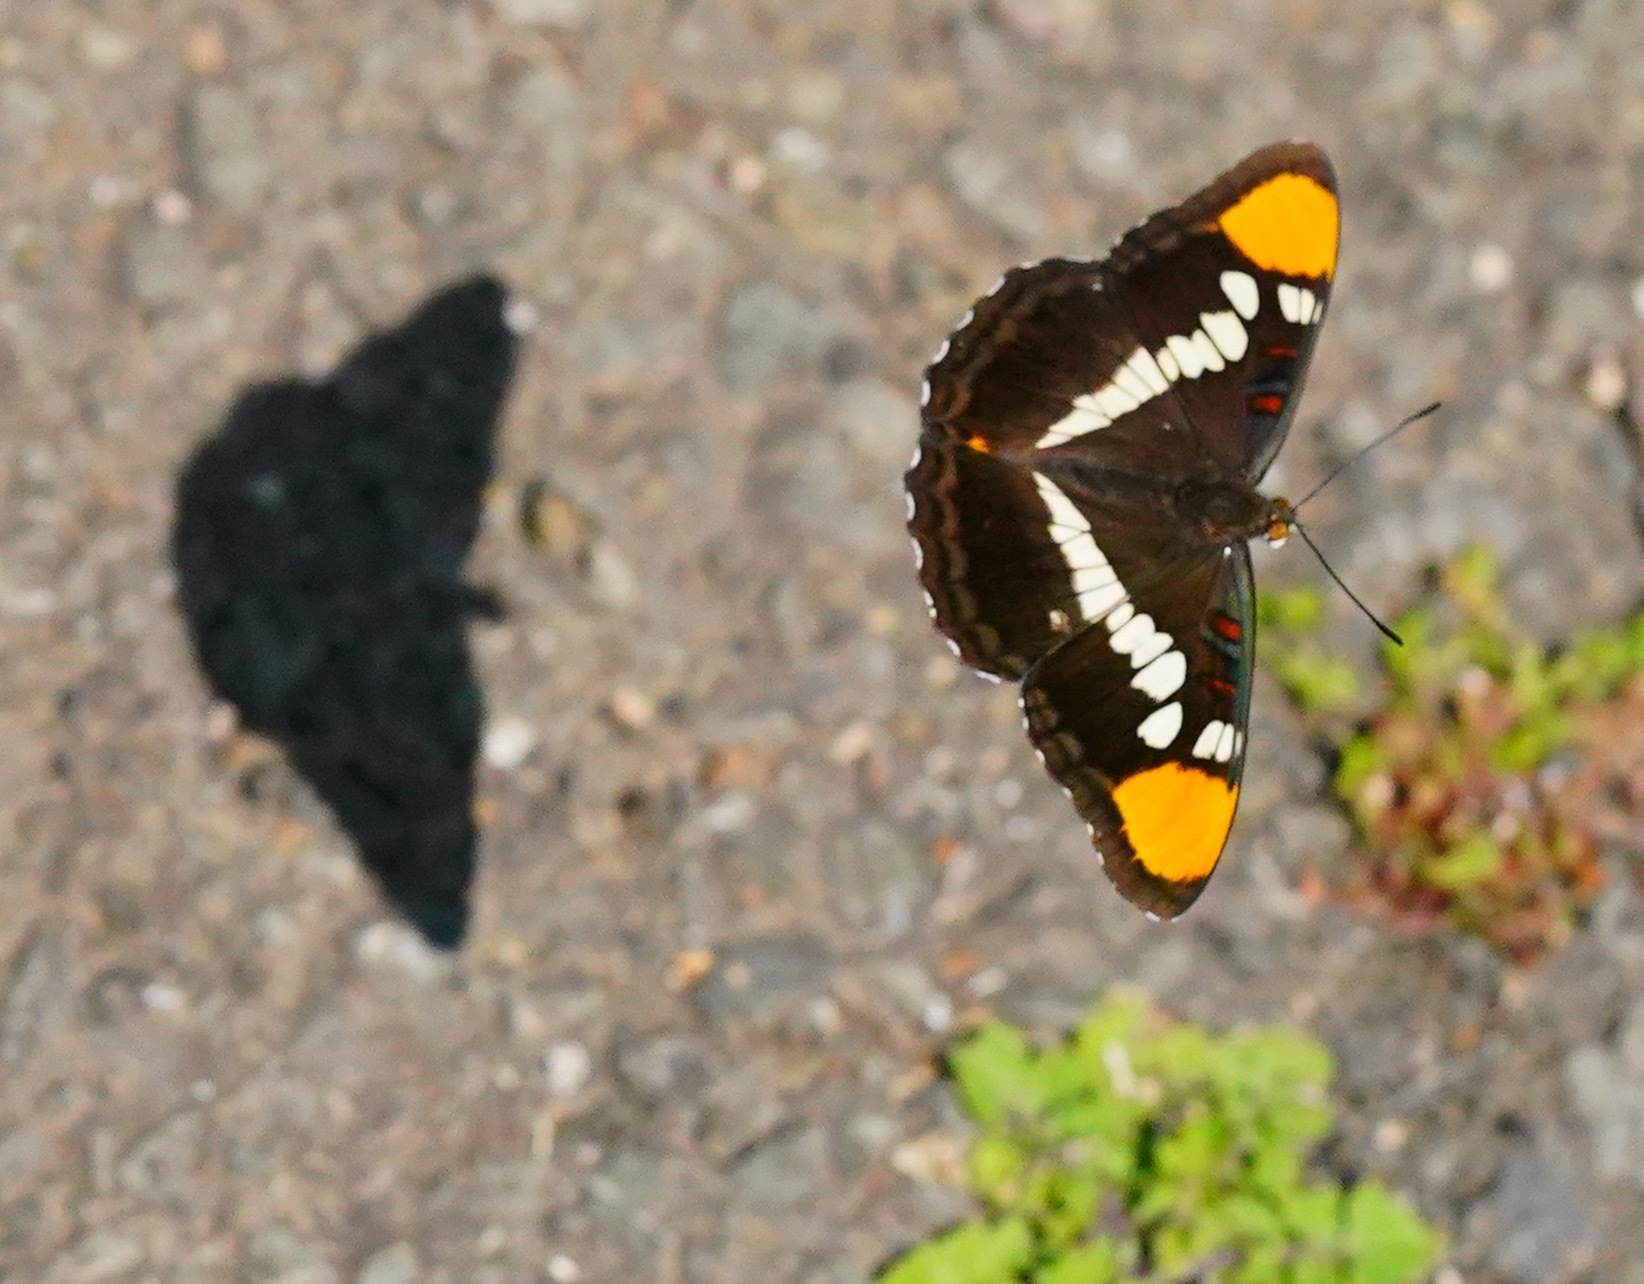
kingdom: Animalia
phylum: Arthropoda
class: Insecta
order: Lepidoptera
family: Nymphalidae
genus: Limenitis
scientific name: Limenitis bredowii
